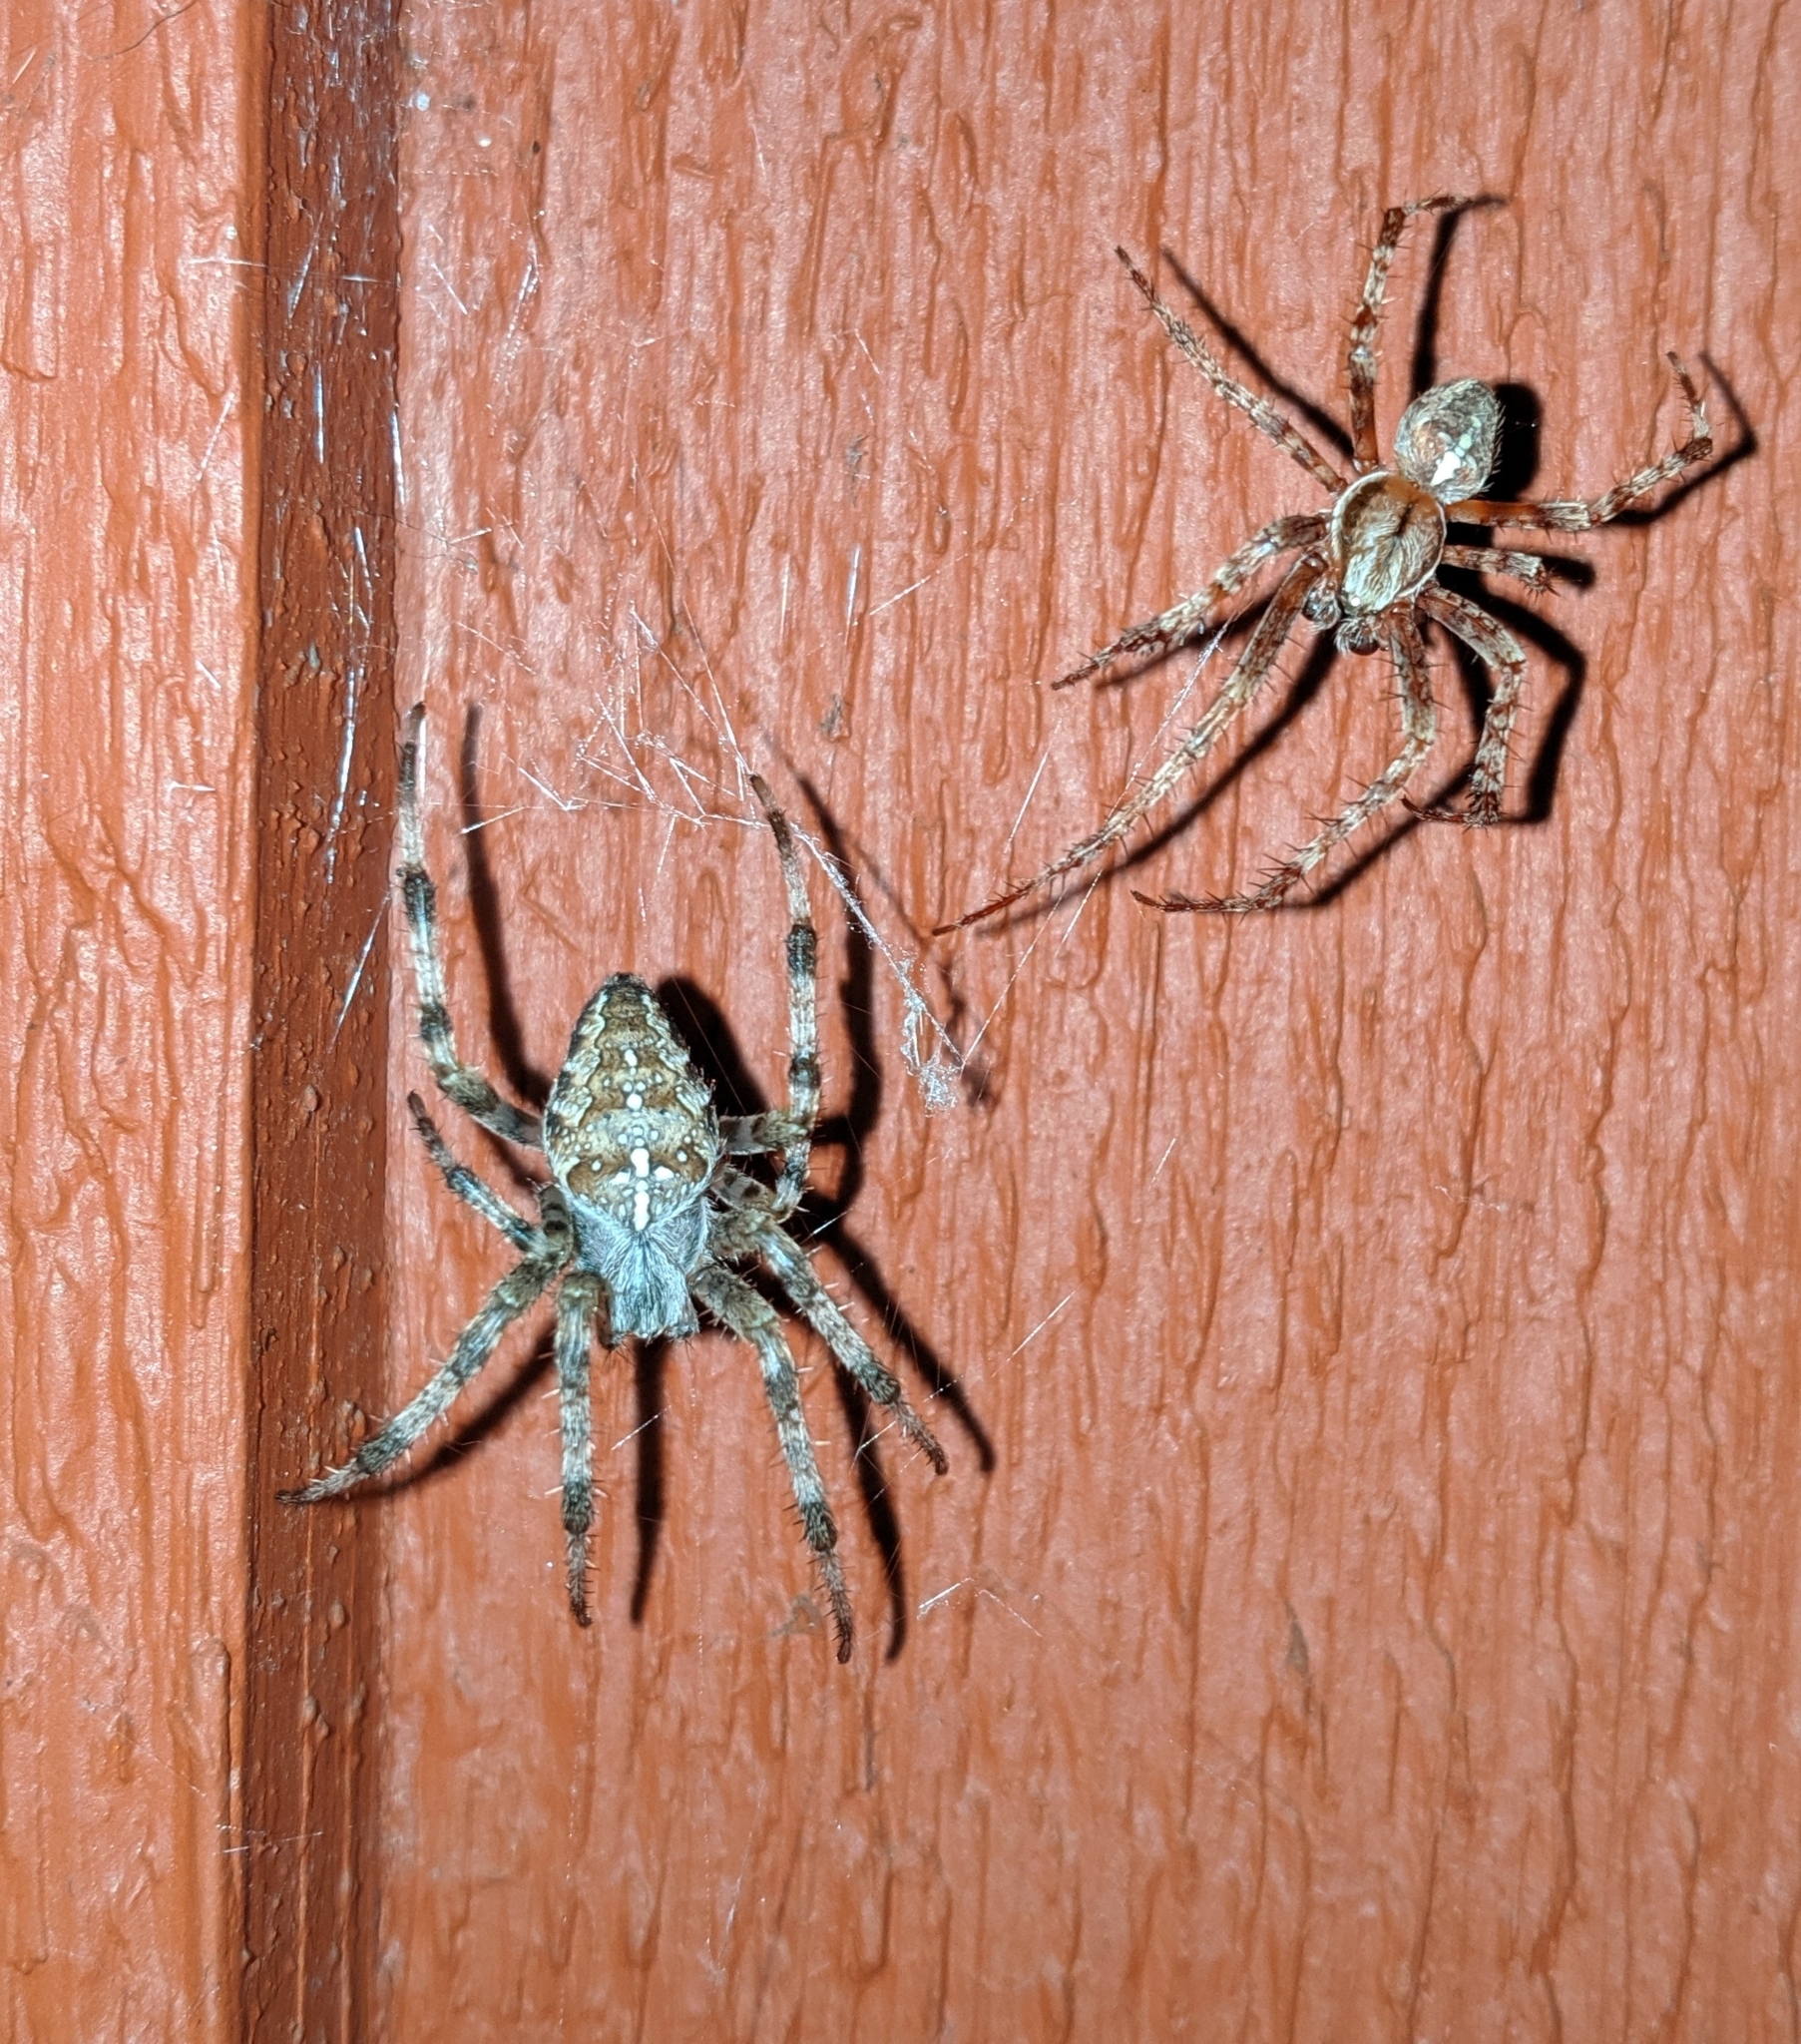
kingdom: Animalia
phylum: Arthropoda
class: Arachnida
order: Araneae
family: Araneidae
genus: Araneus
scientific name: Araneus diadematus
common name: Cross orbweaver
